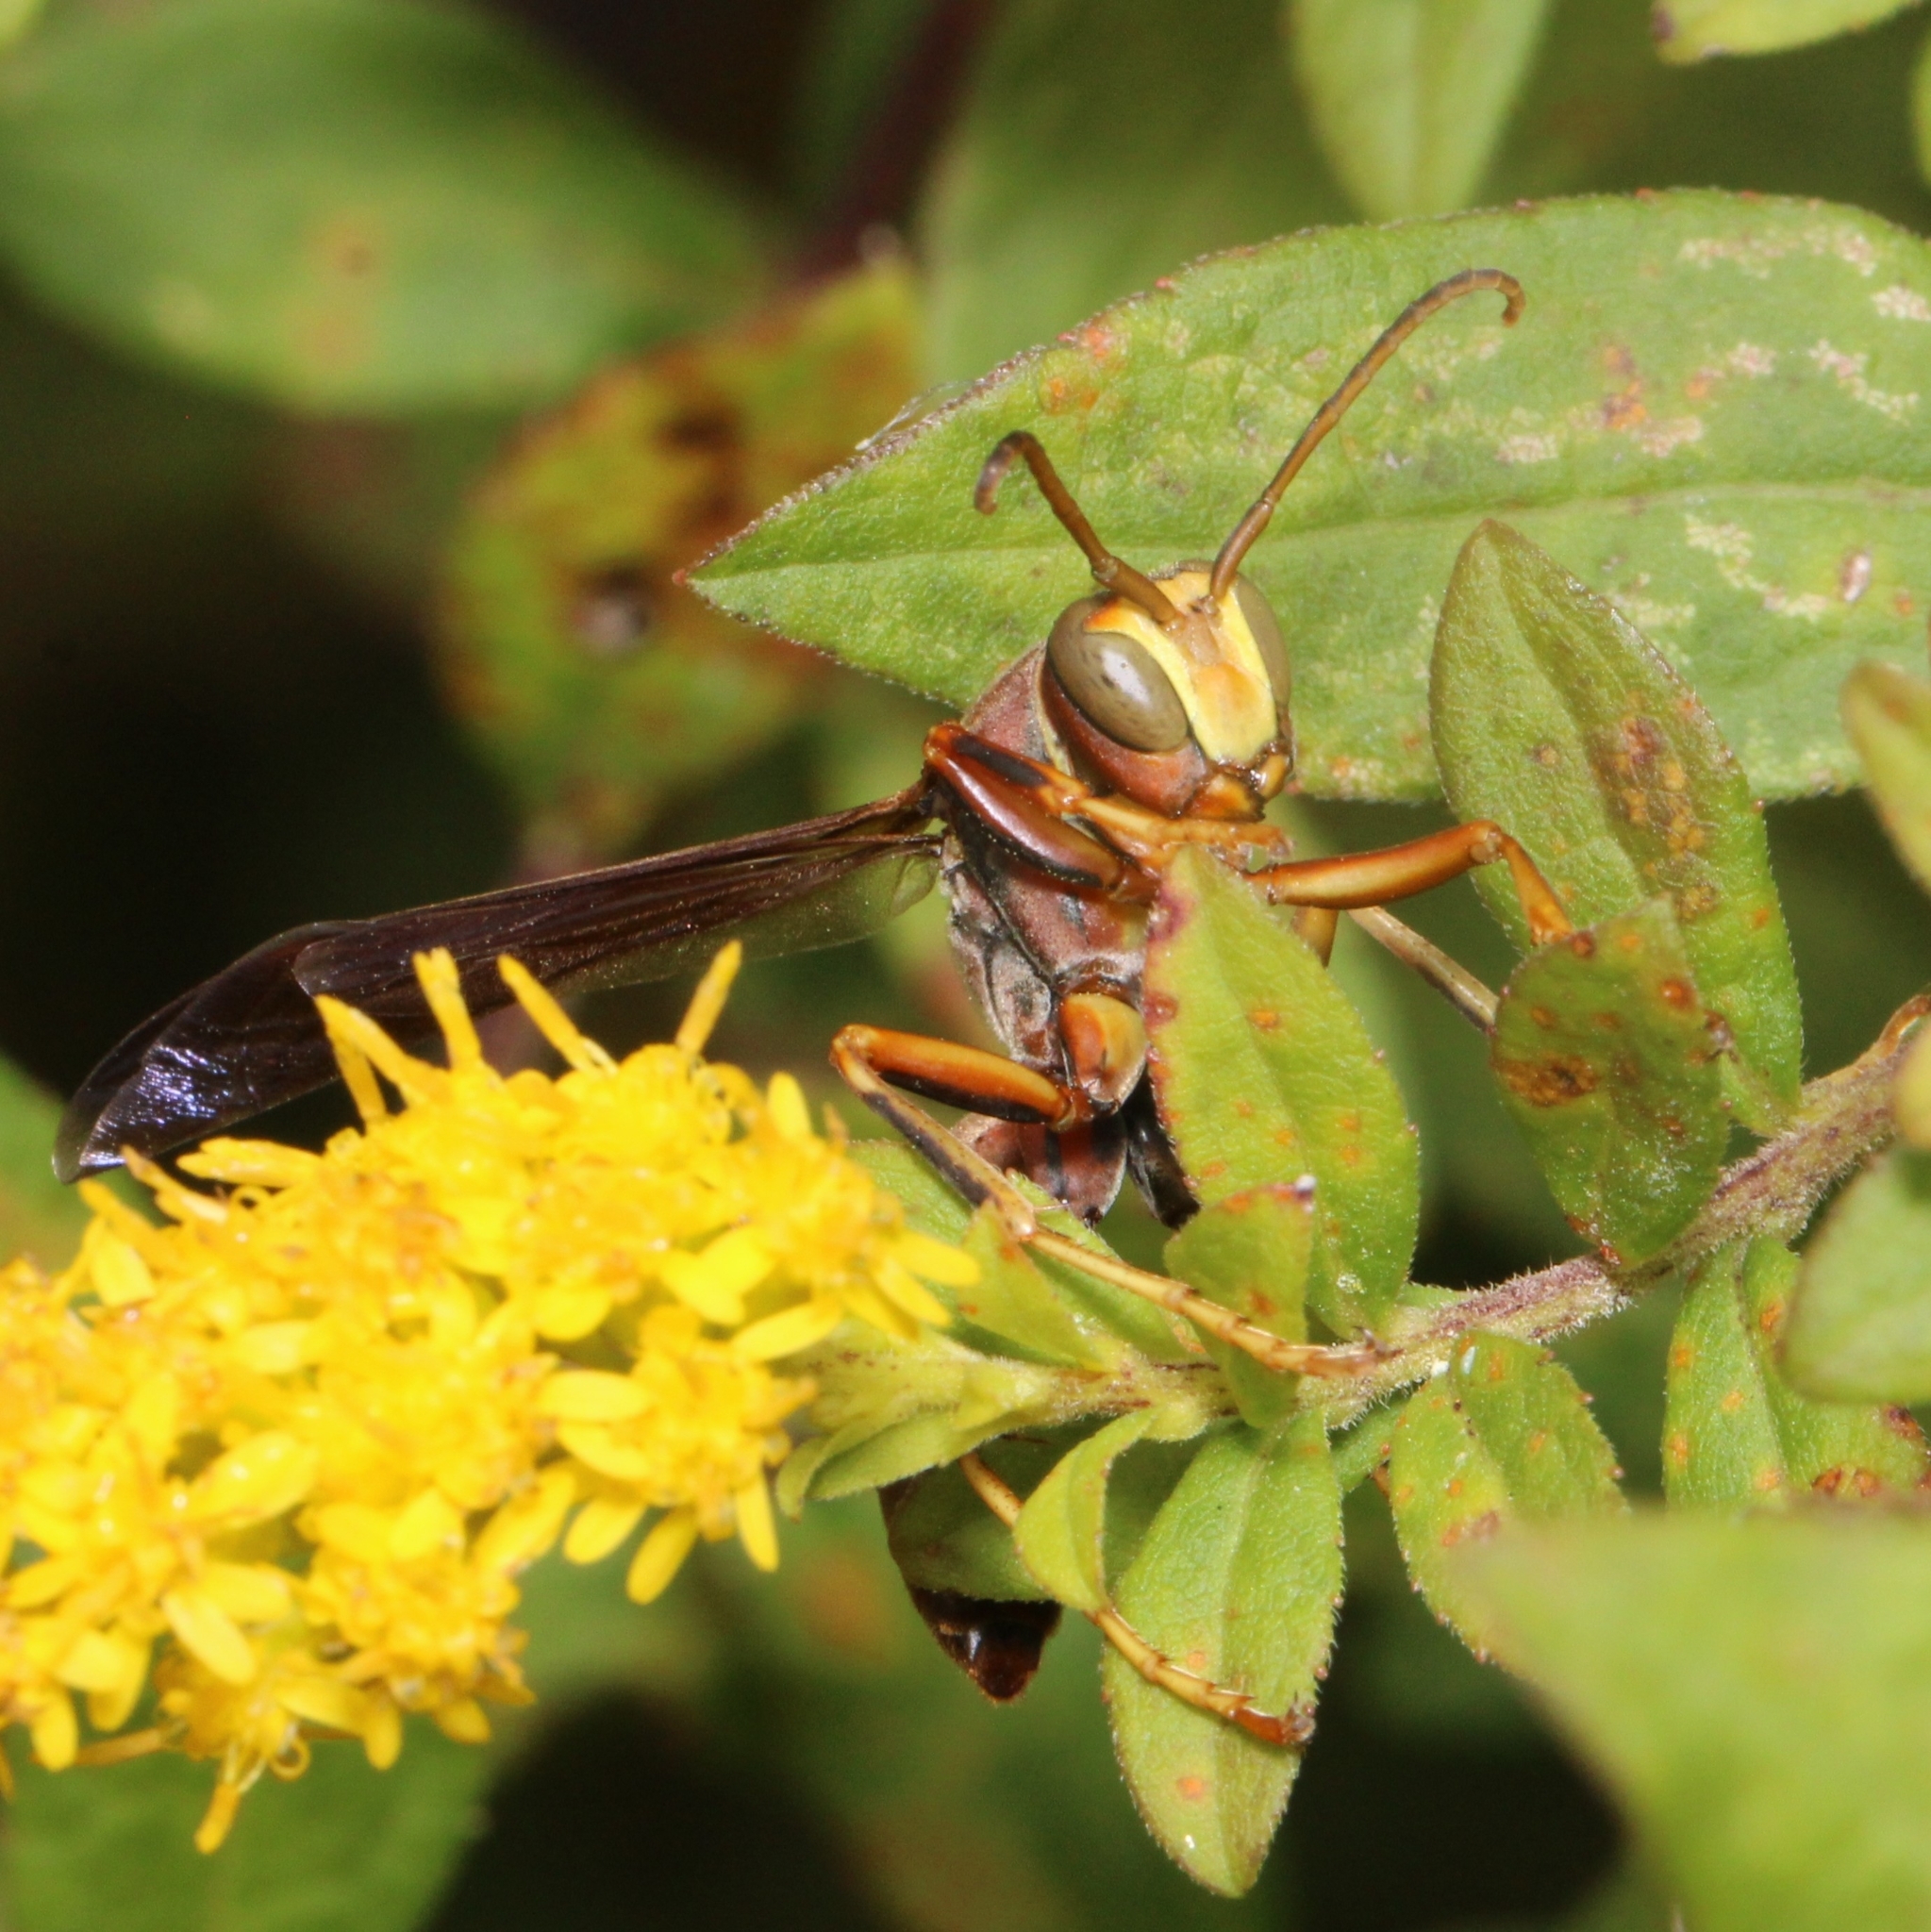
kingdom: Animalia
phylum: Arthropoda
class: Insecta
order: Hymenoptera
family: Eumenidae
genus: Polistes
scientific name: Polistes metricus
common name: Metric paper wasp
